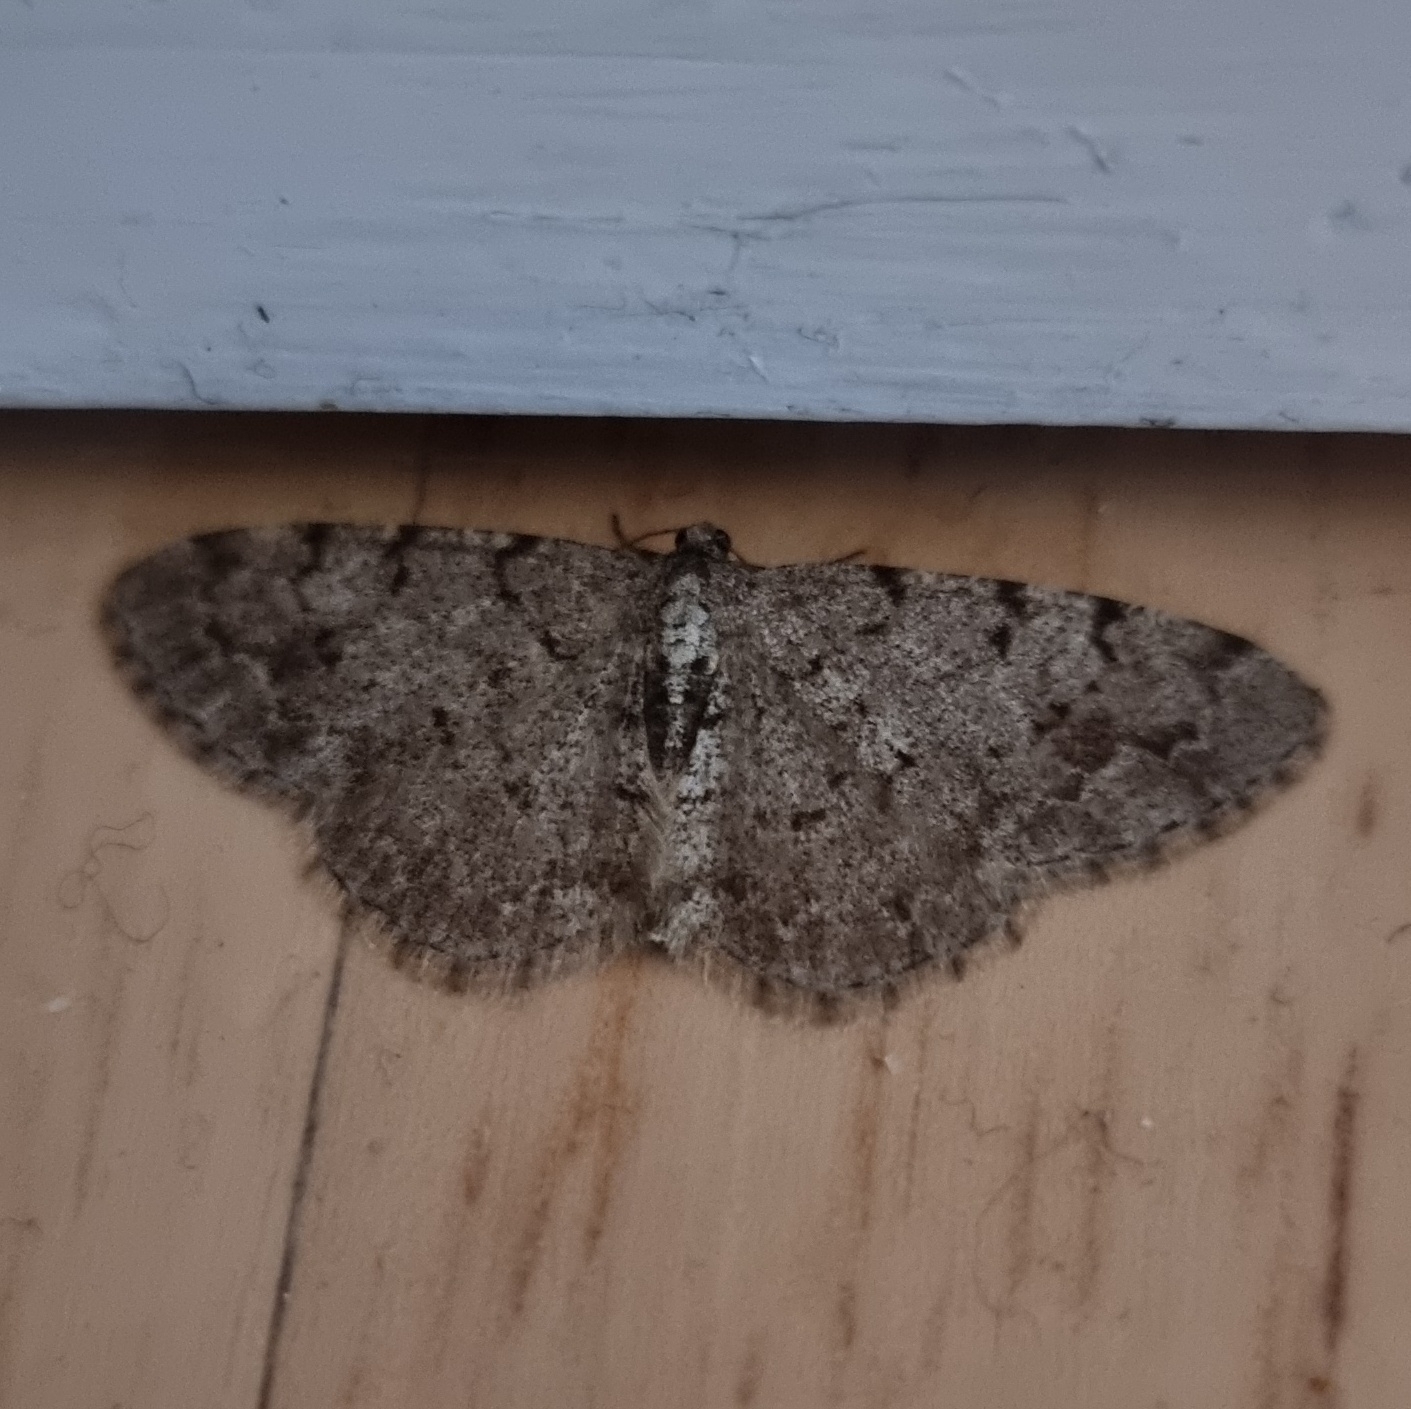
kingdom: Animalia
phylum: Arthropoda
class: Insecta
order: Lepidoptera
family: Geometridae
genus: Aethalura
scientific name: Aethalura punctulata
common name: Grey birch
